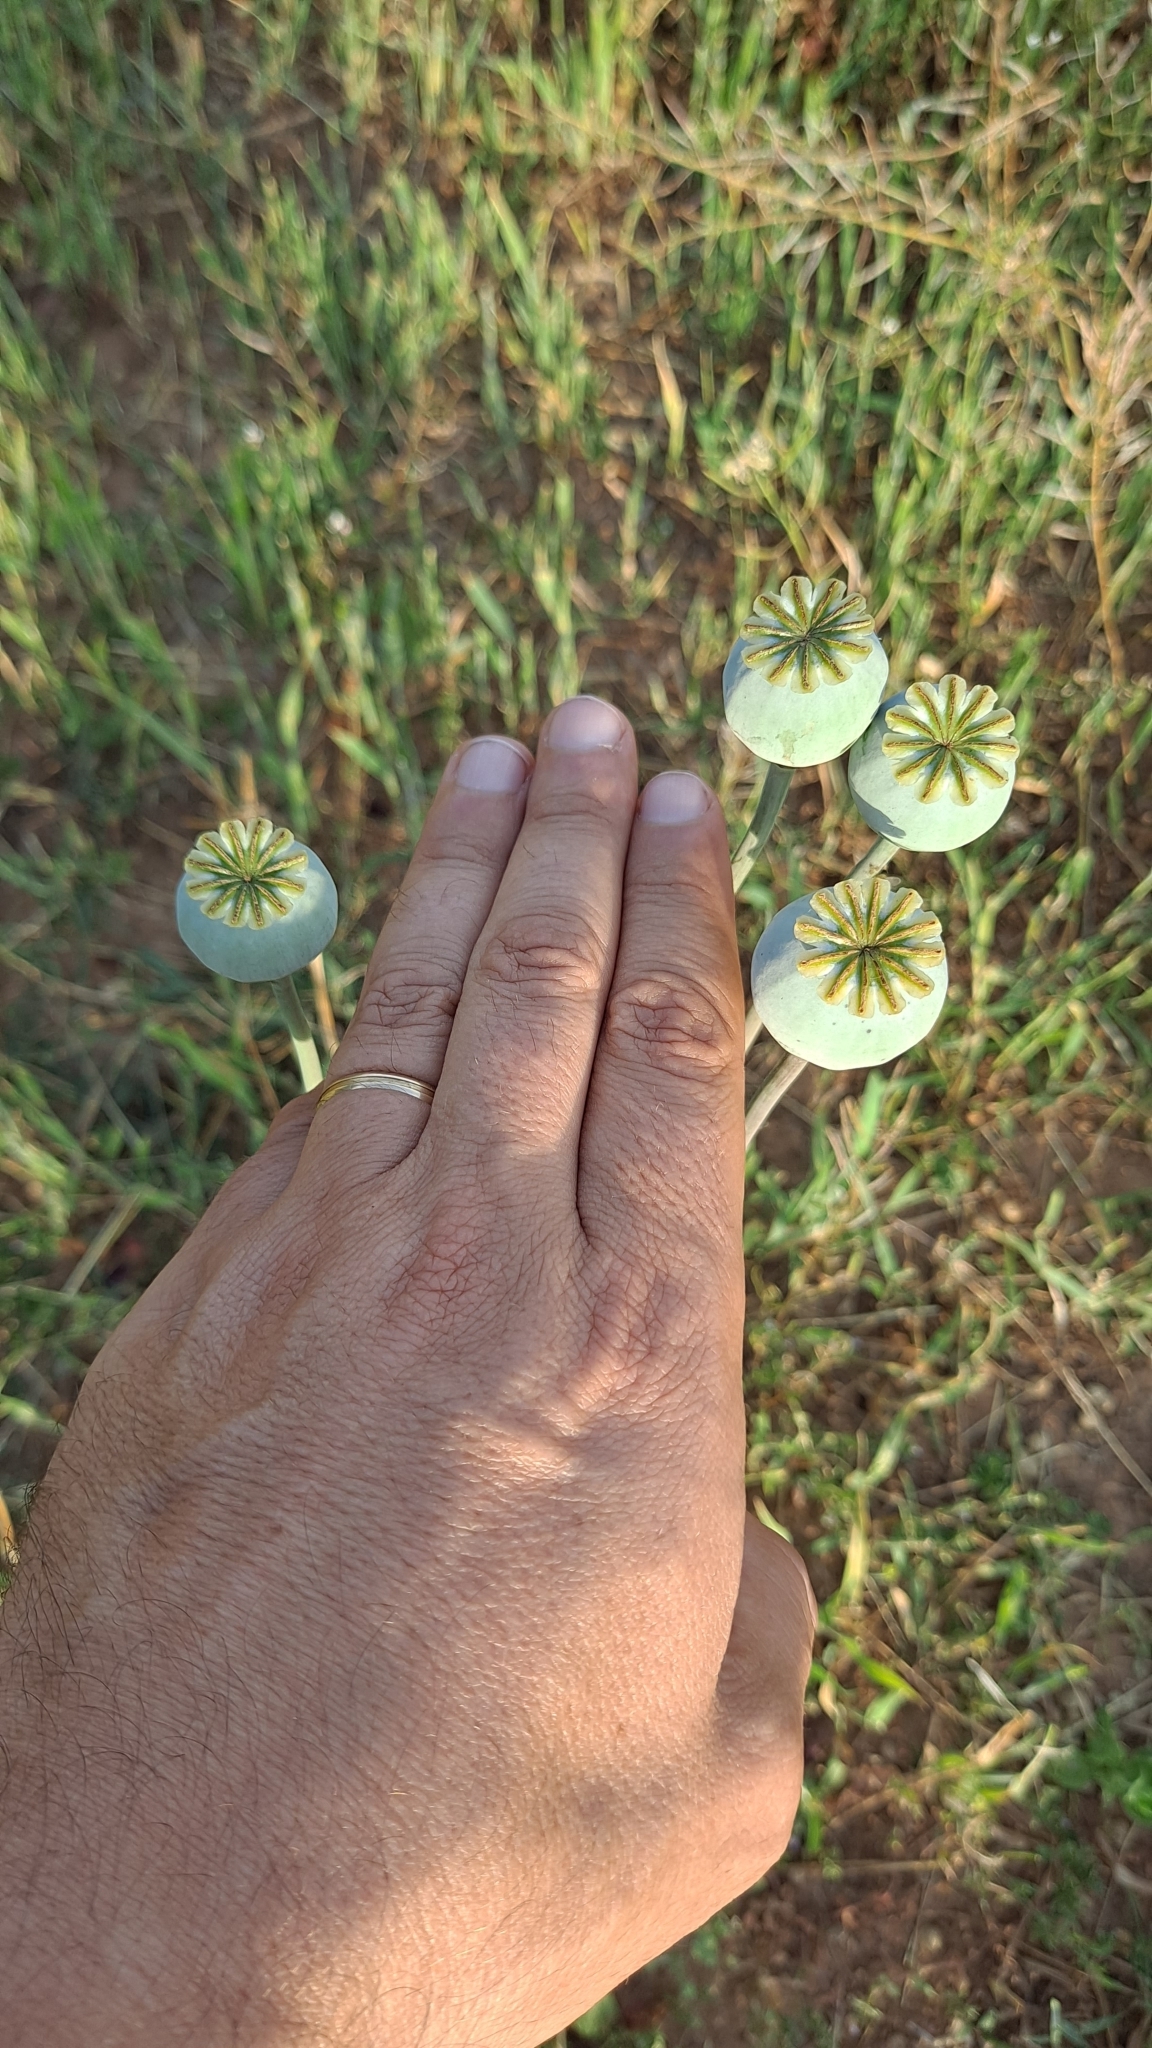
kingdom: Plantae
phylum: Tracheophyta
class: Magnoliopsida
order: Ranunculales
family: Papaveraceae
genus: Papaver
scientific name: Papaver somniferum
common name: Opium poppy
